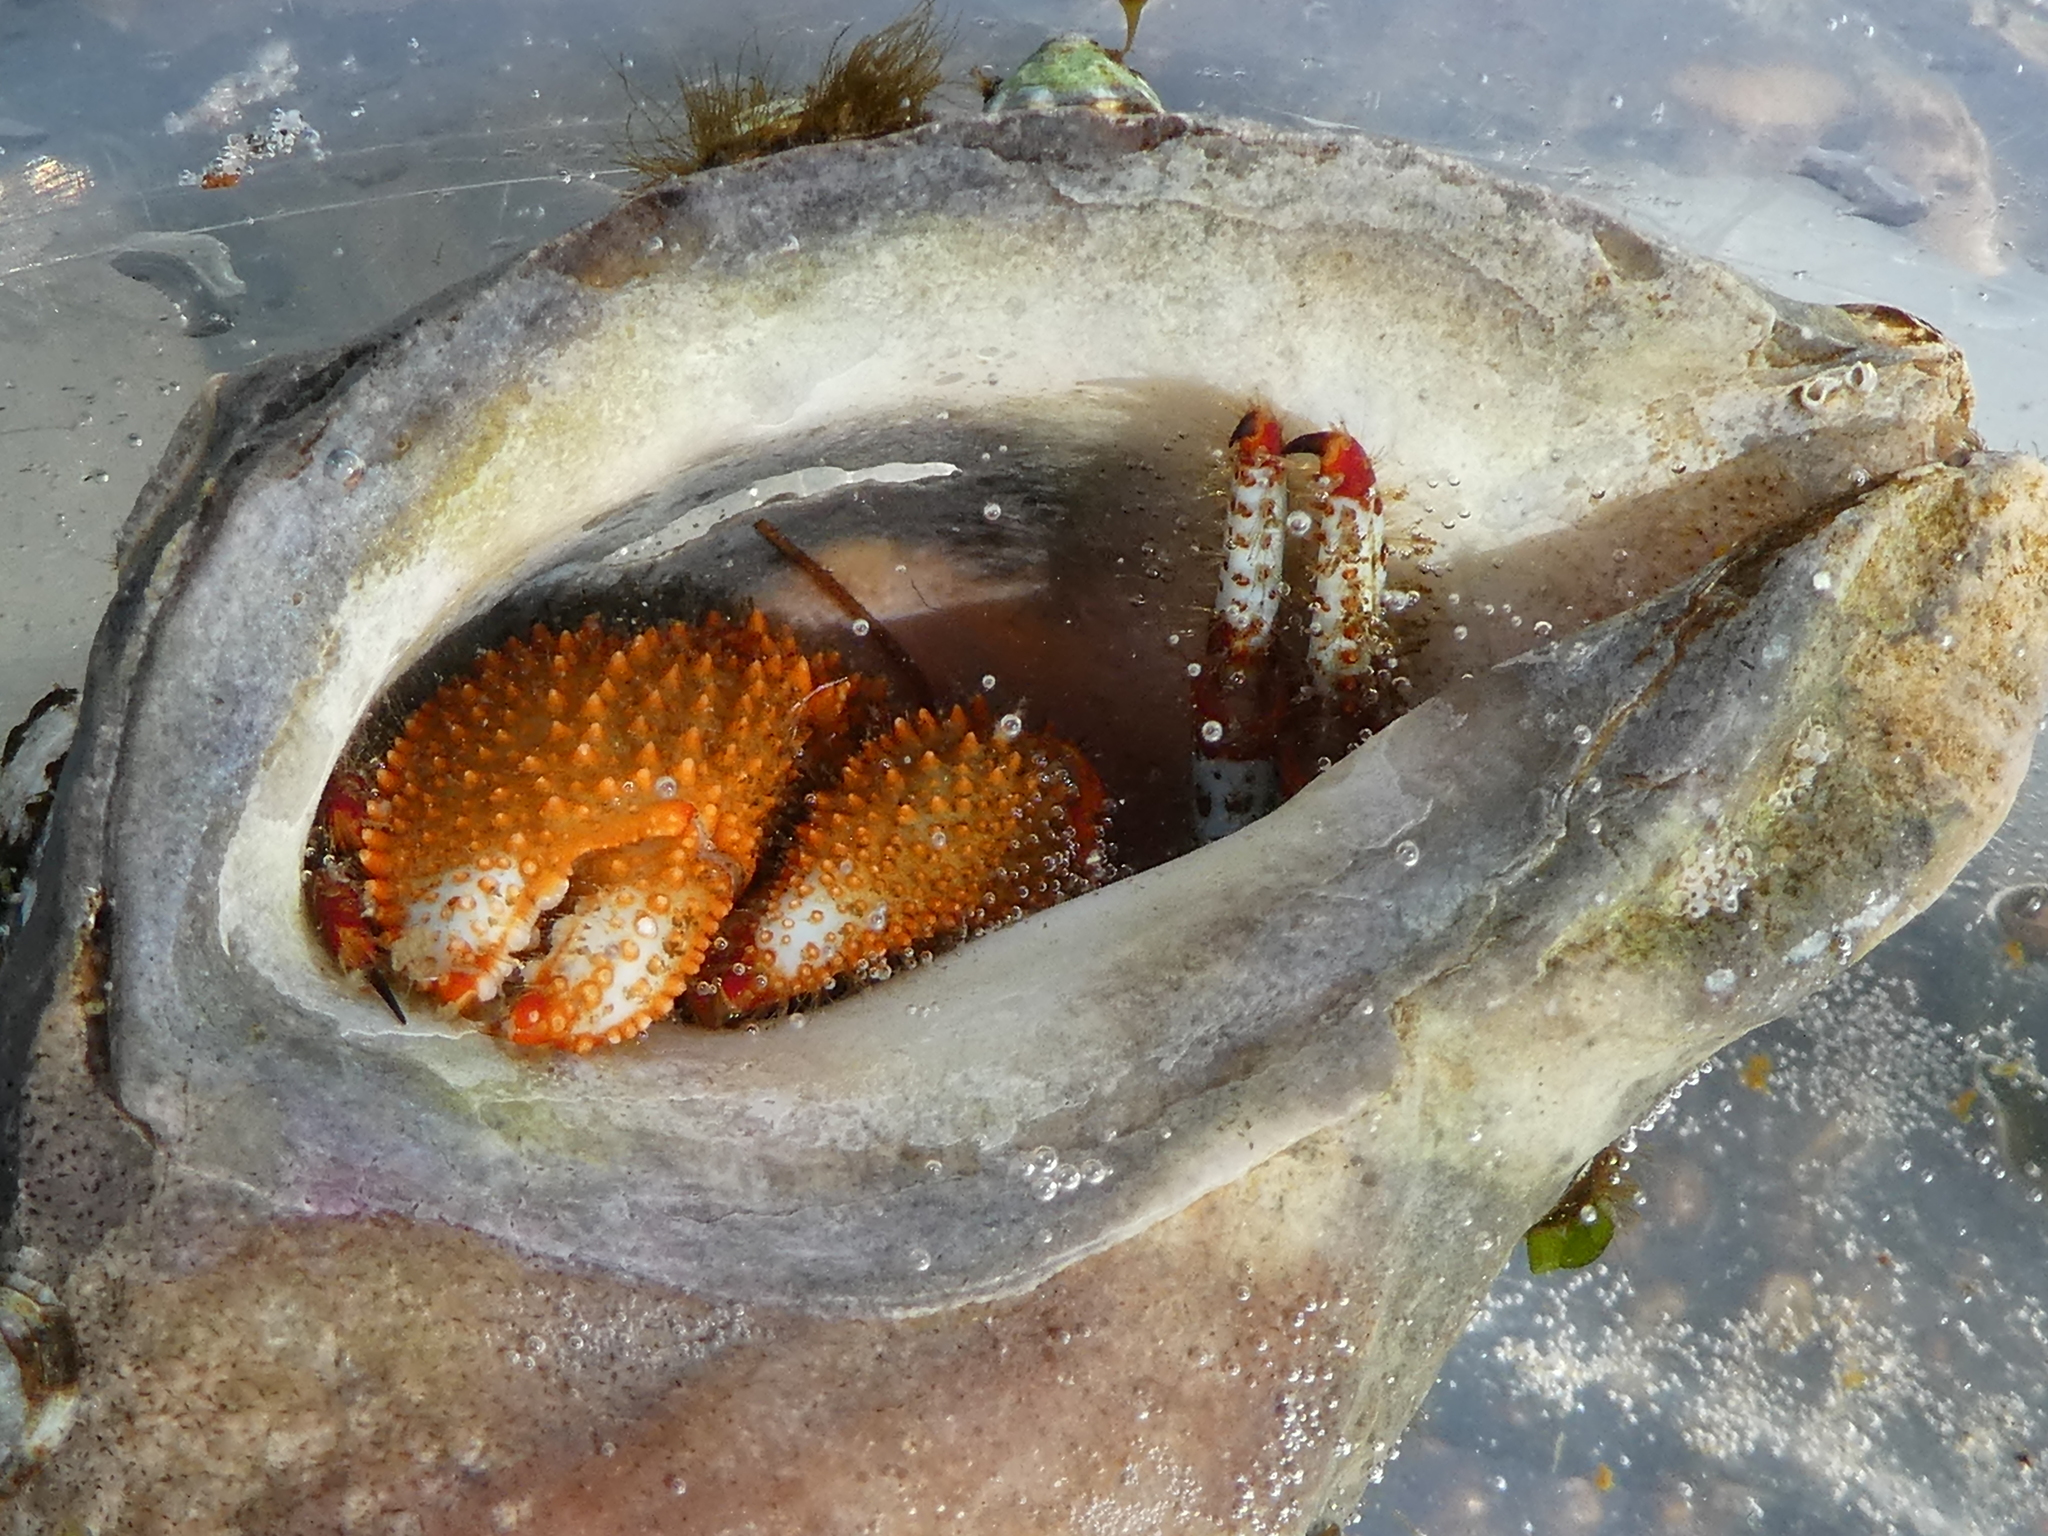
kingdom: Animalia
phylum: Arthropoda
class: Malacostraca
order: Decapoda
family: Paguridae
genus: Pagurus
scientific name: Pagurus beringanus
